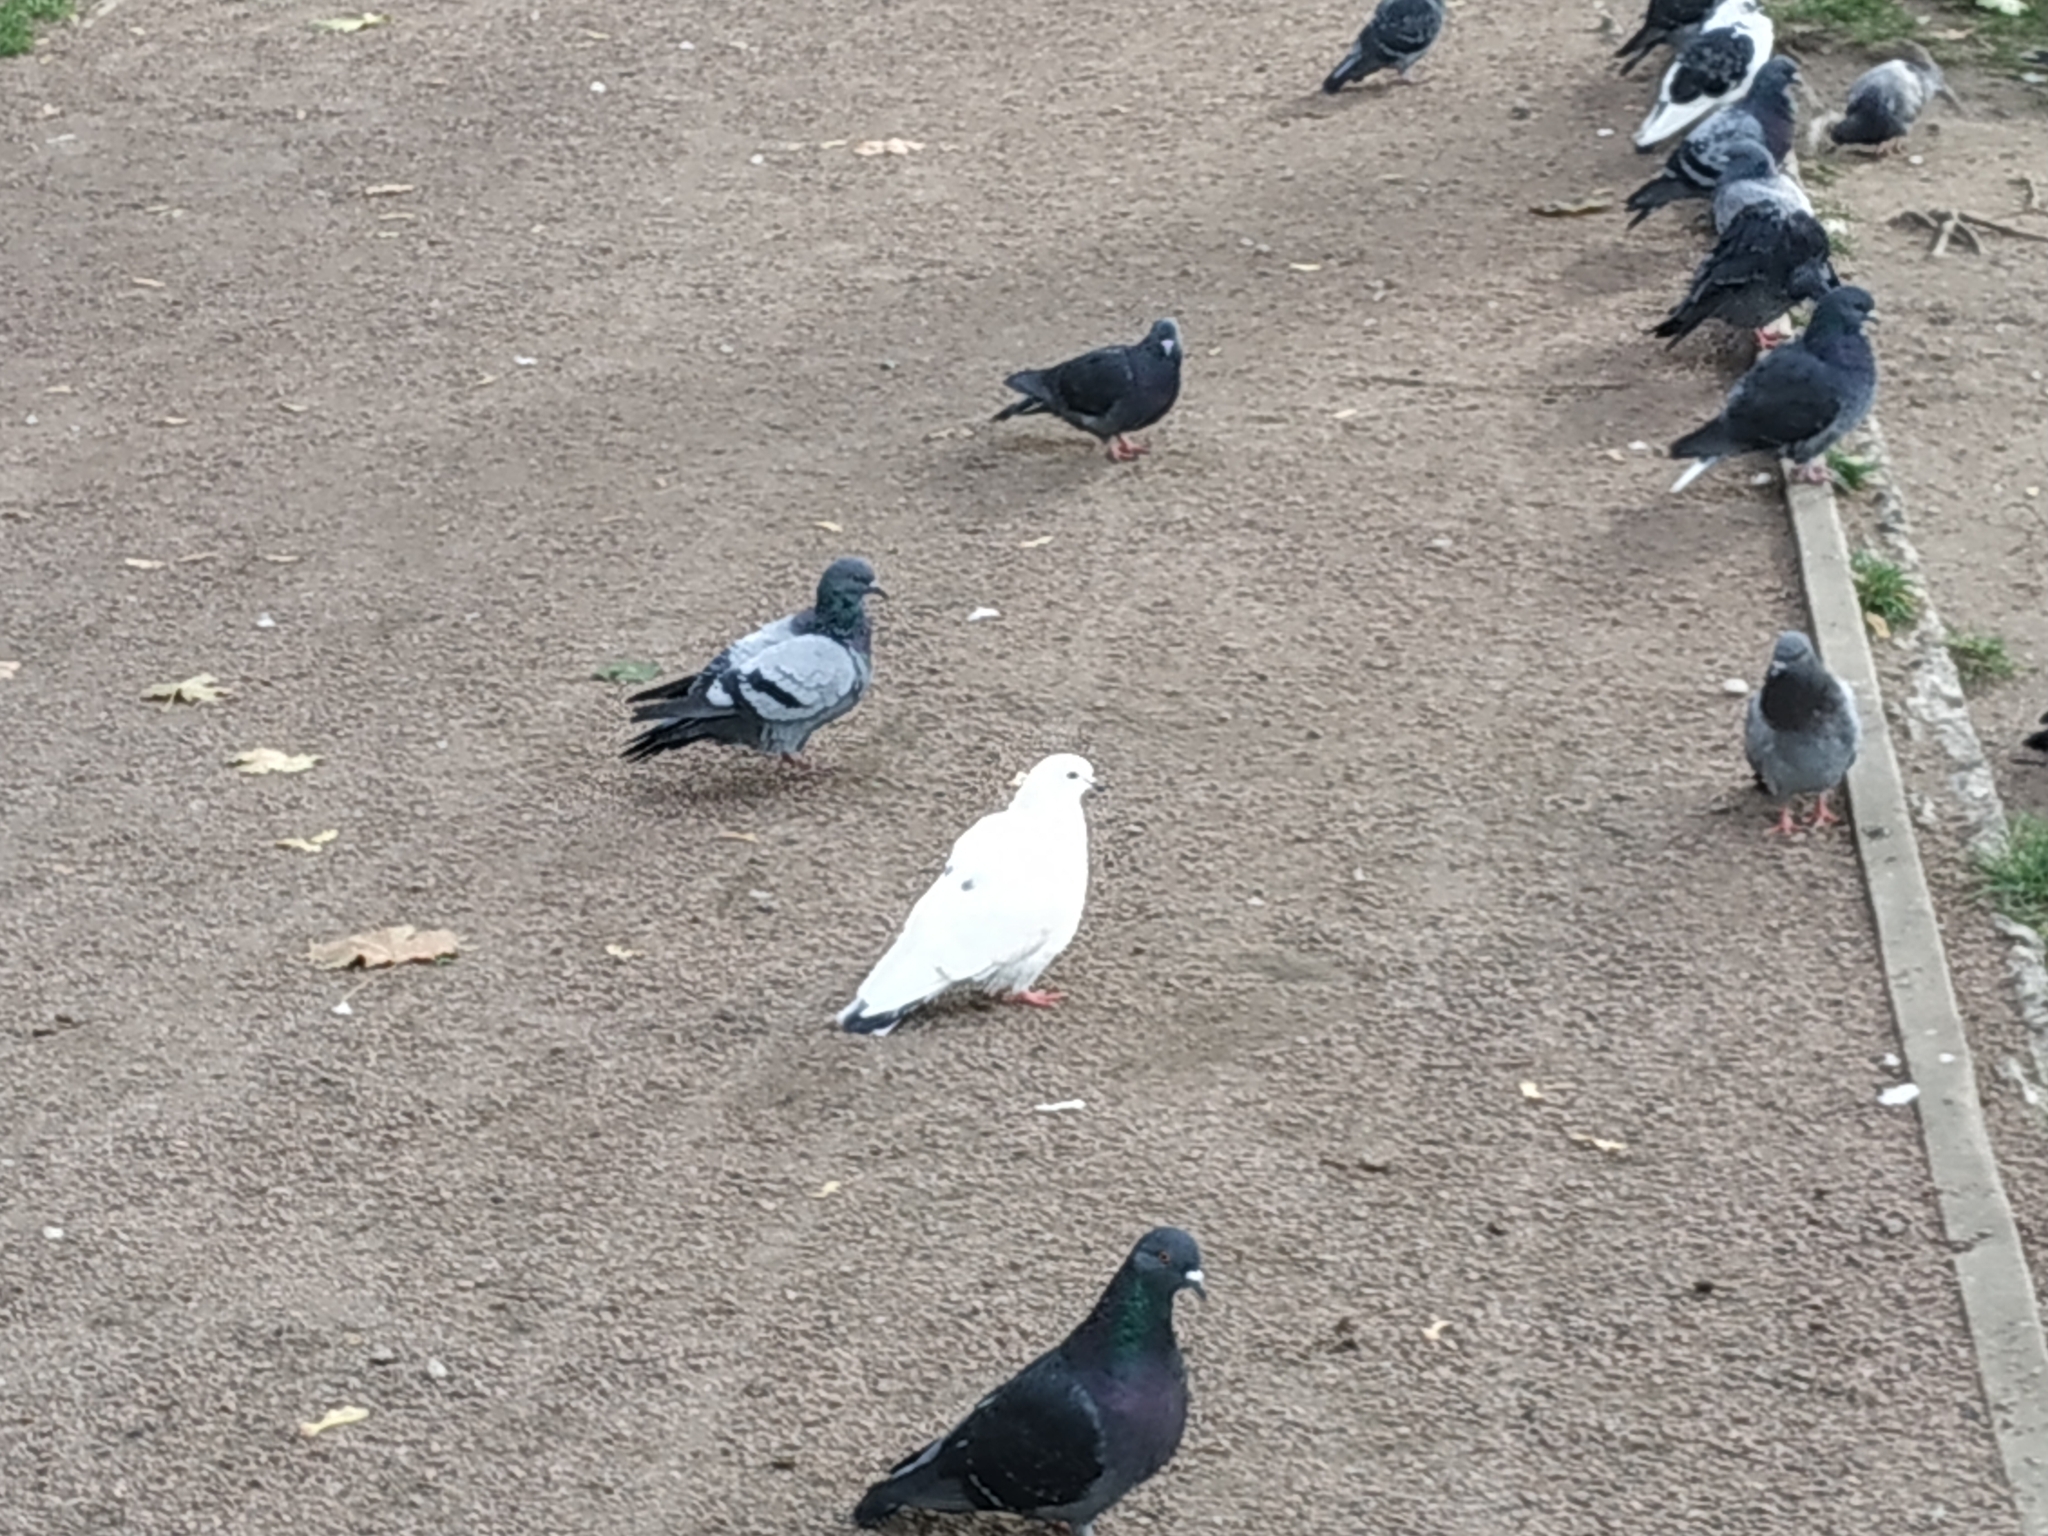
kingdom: Animalia
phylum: Chordata
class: Aves
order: Columbiformes
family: Columbidae
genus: Columba
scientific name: Columba livia
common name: Rock pigeon
